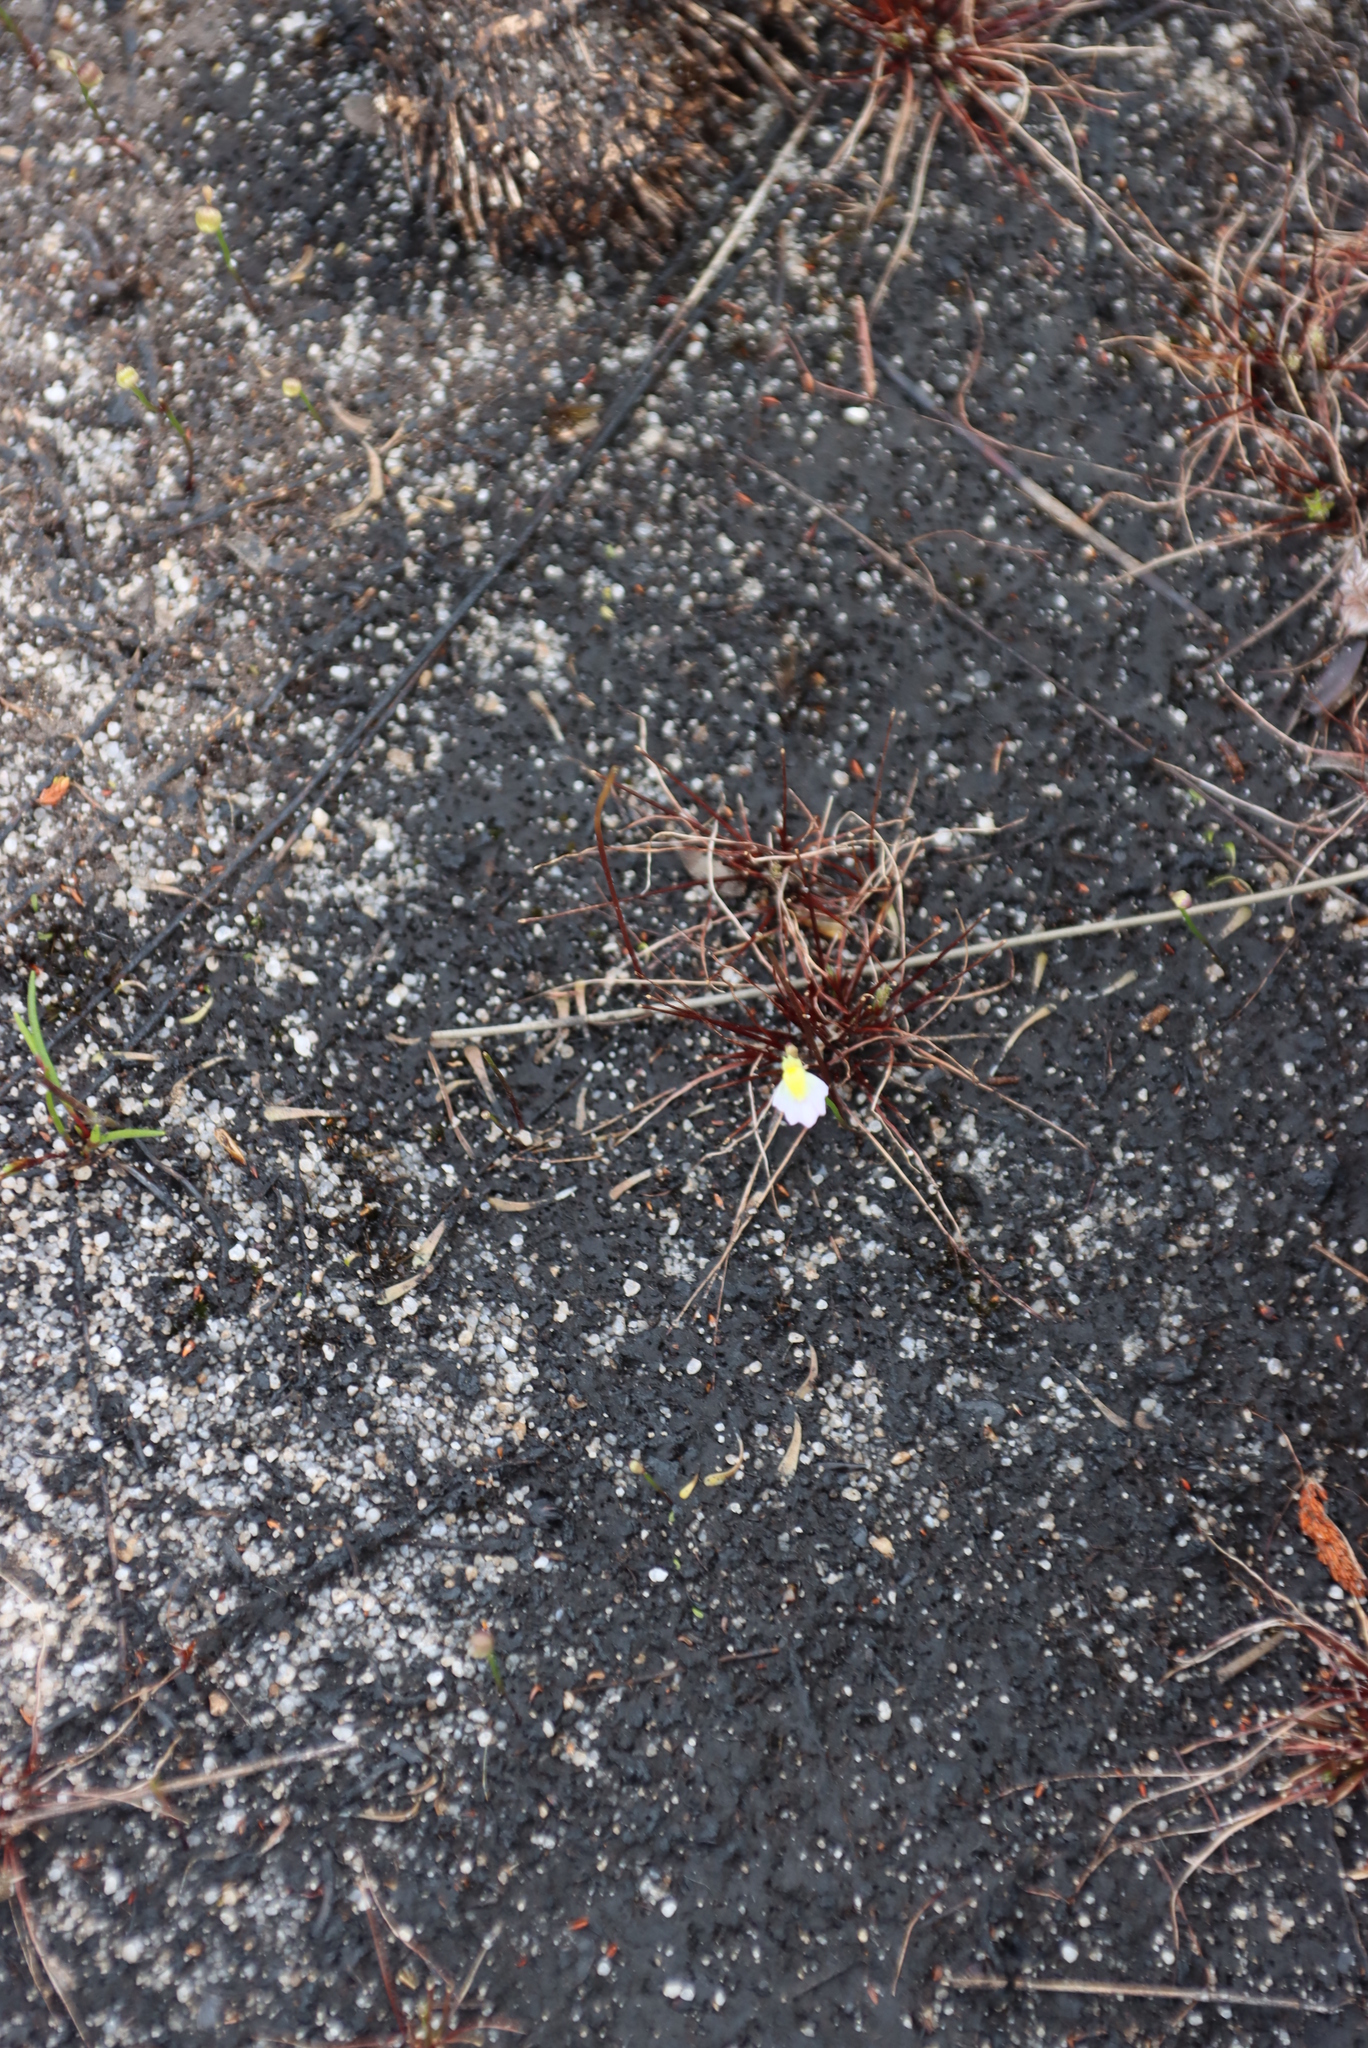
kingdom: Plantae
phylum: Tracheophyta
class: Magnoliopsida
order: Lamiales
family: Lentibulariaceae
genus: Utricularia
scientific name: Utricularia bisquamata
